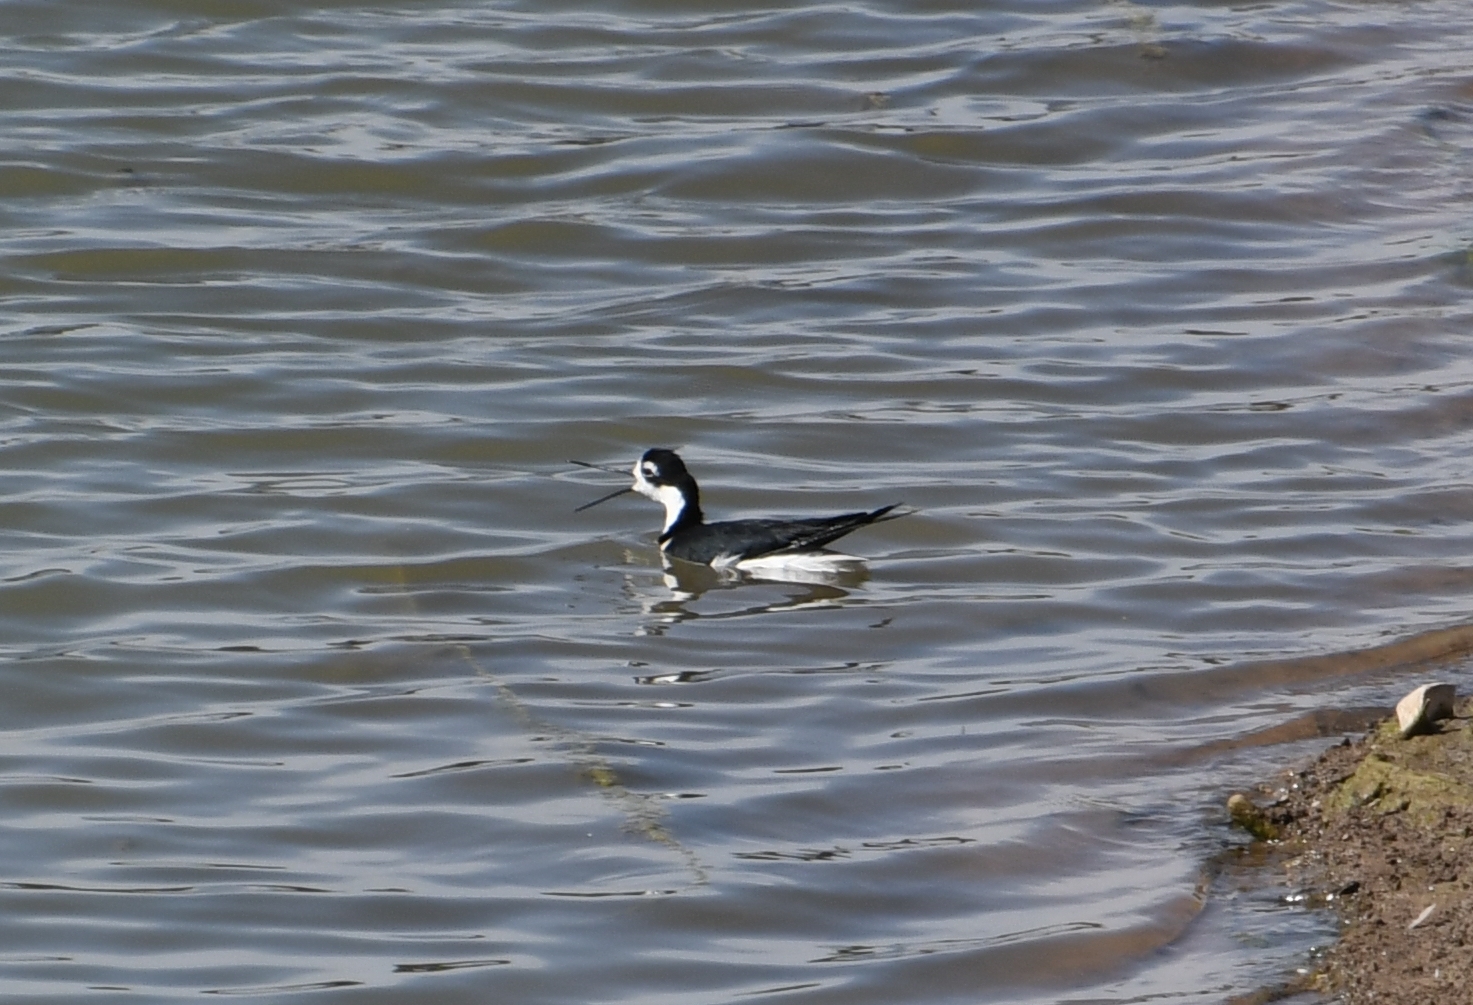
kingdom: Animalia
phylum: Chordata
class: Aves
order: Charadriiformes
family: Recurvirostridae
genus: Himantopus
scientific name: Himantopus mexicanus
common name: Black-necked stilt
